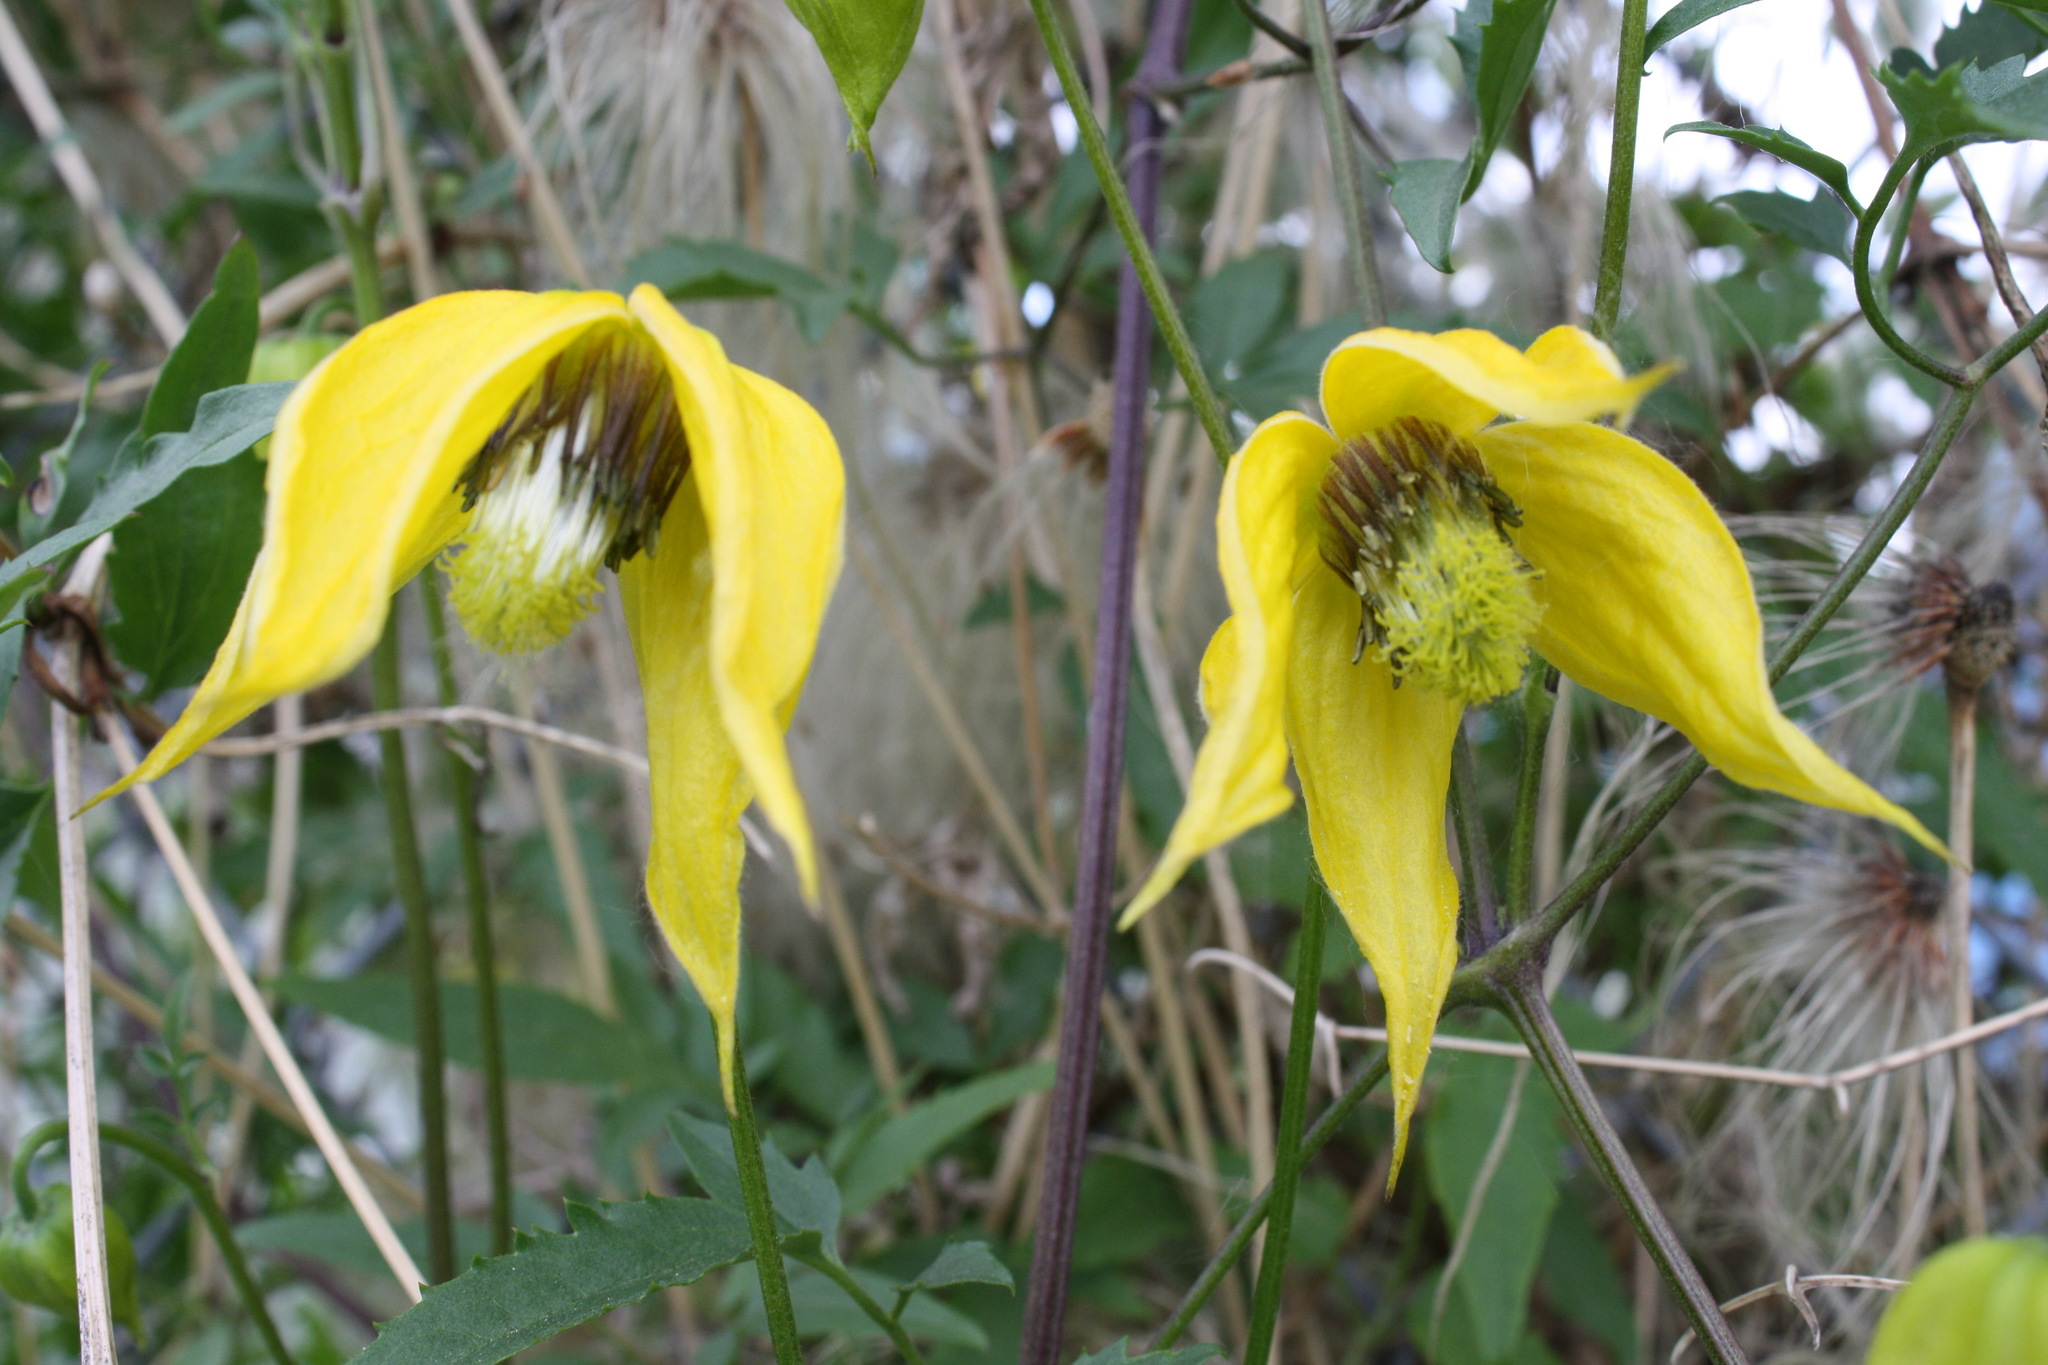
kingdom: Plantae
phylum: Tracheophyta
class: Magnoliopsida
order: Ranunculales
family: Ranunculaceae
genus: Clematis
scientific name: Clematis tangutica
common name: Orange-peel clematis
